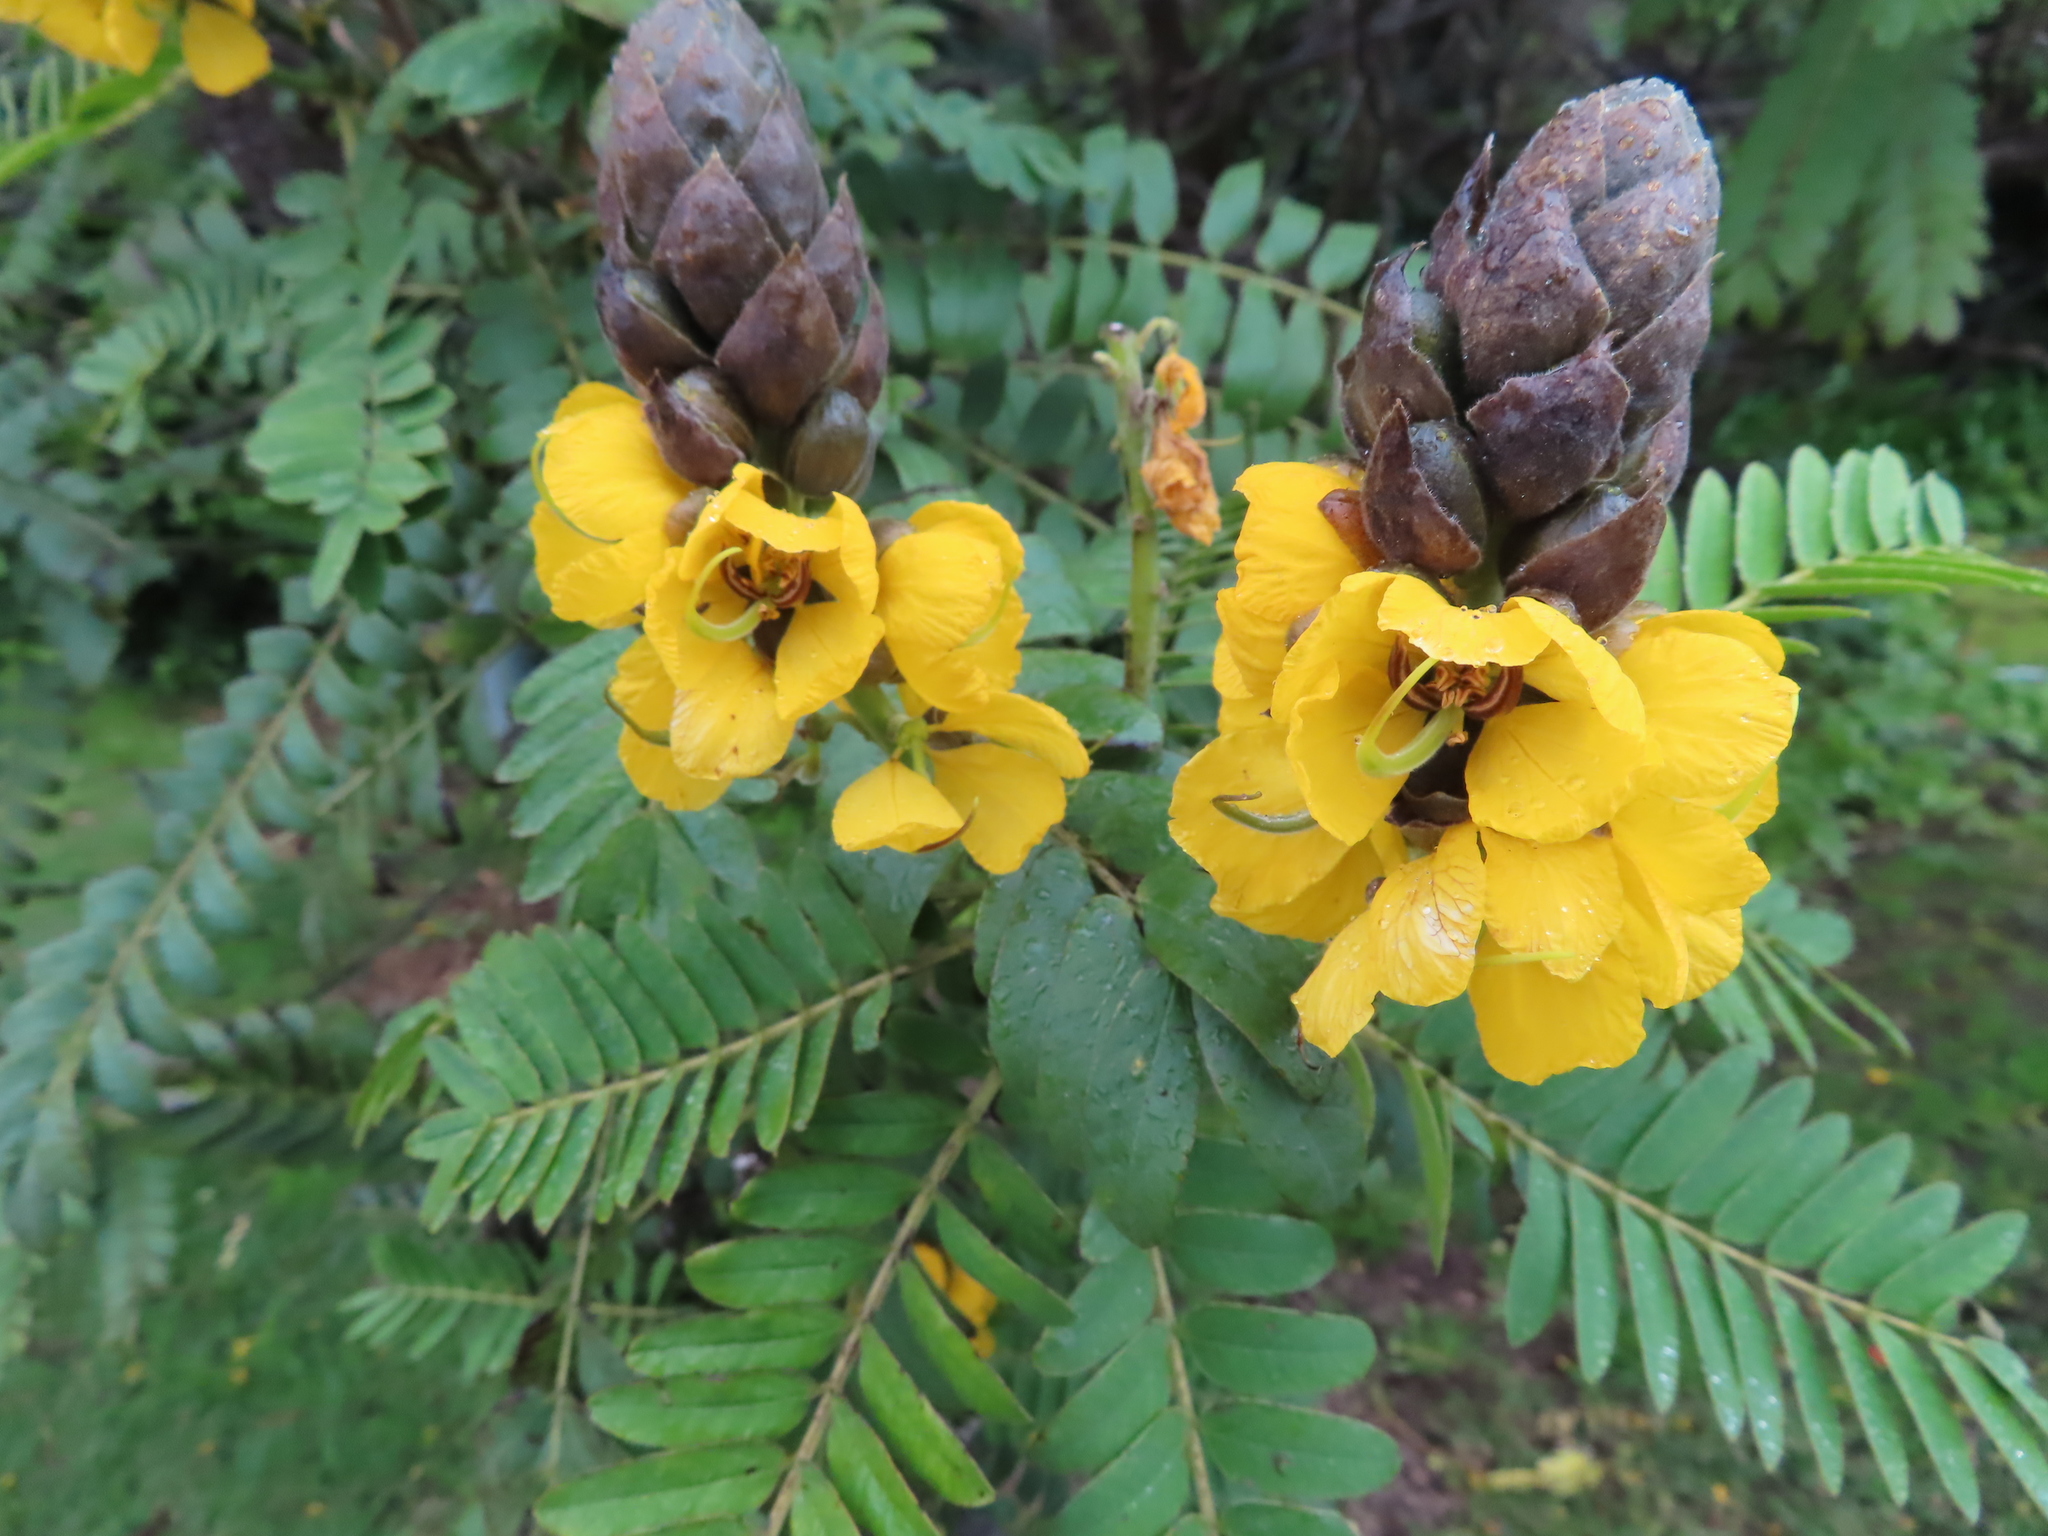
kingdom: Plantae
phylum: Tracheophyta
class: Magnoliopsida
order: Fabales
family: Fabaceae
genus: Senna
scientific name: Senna didymobotrya
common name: African senna
